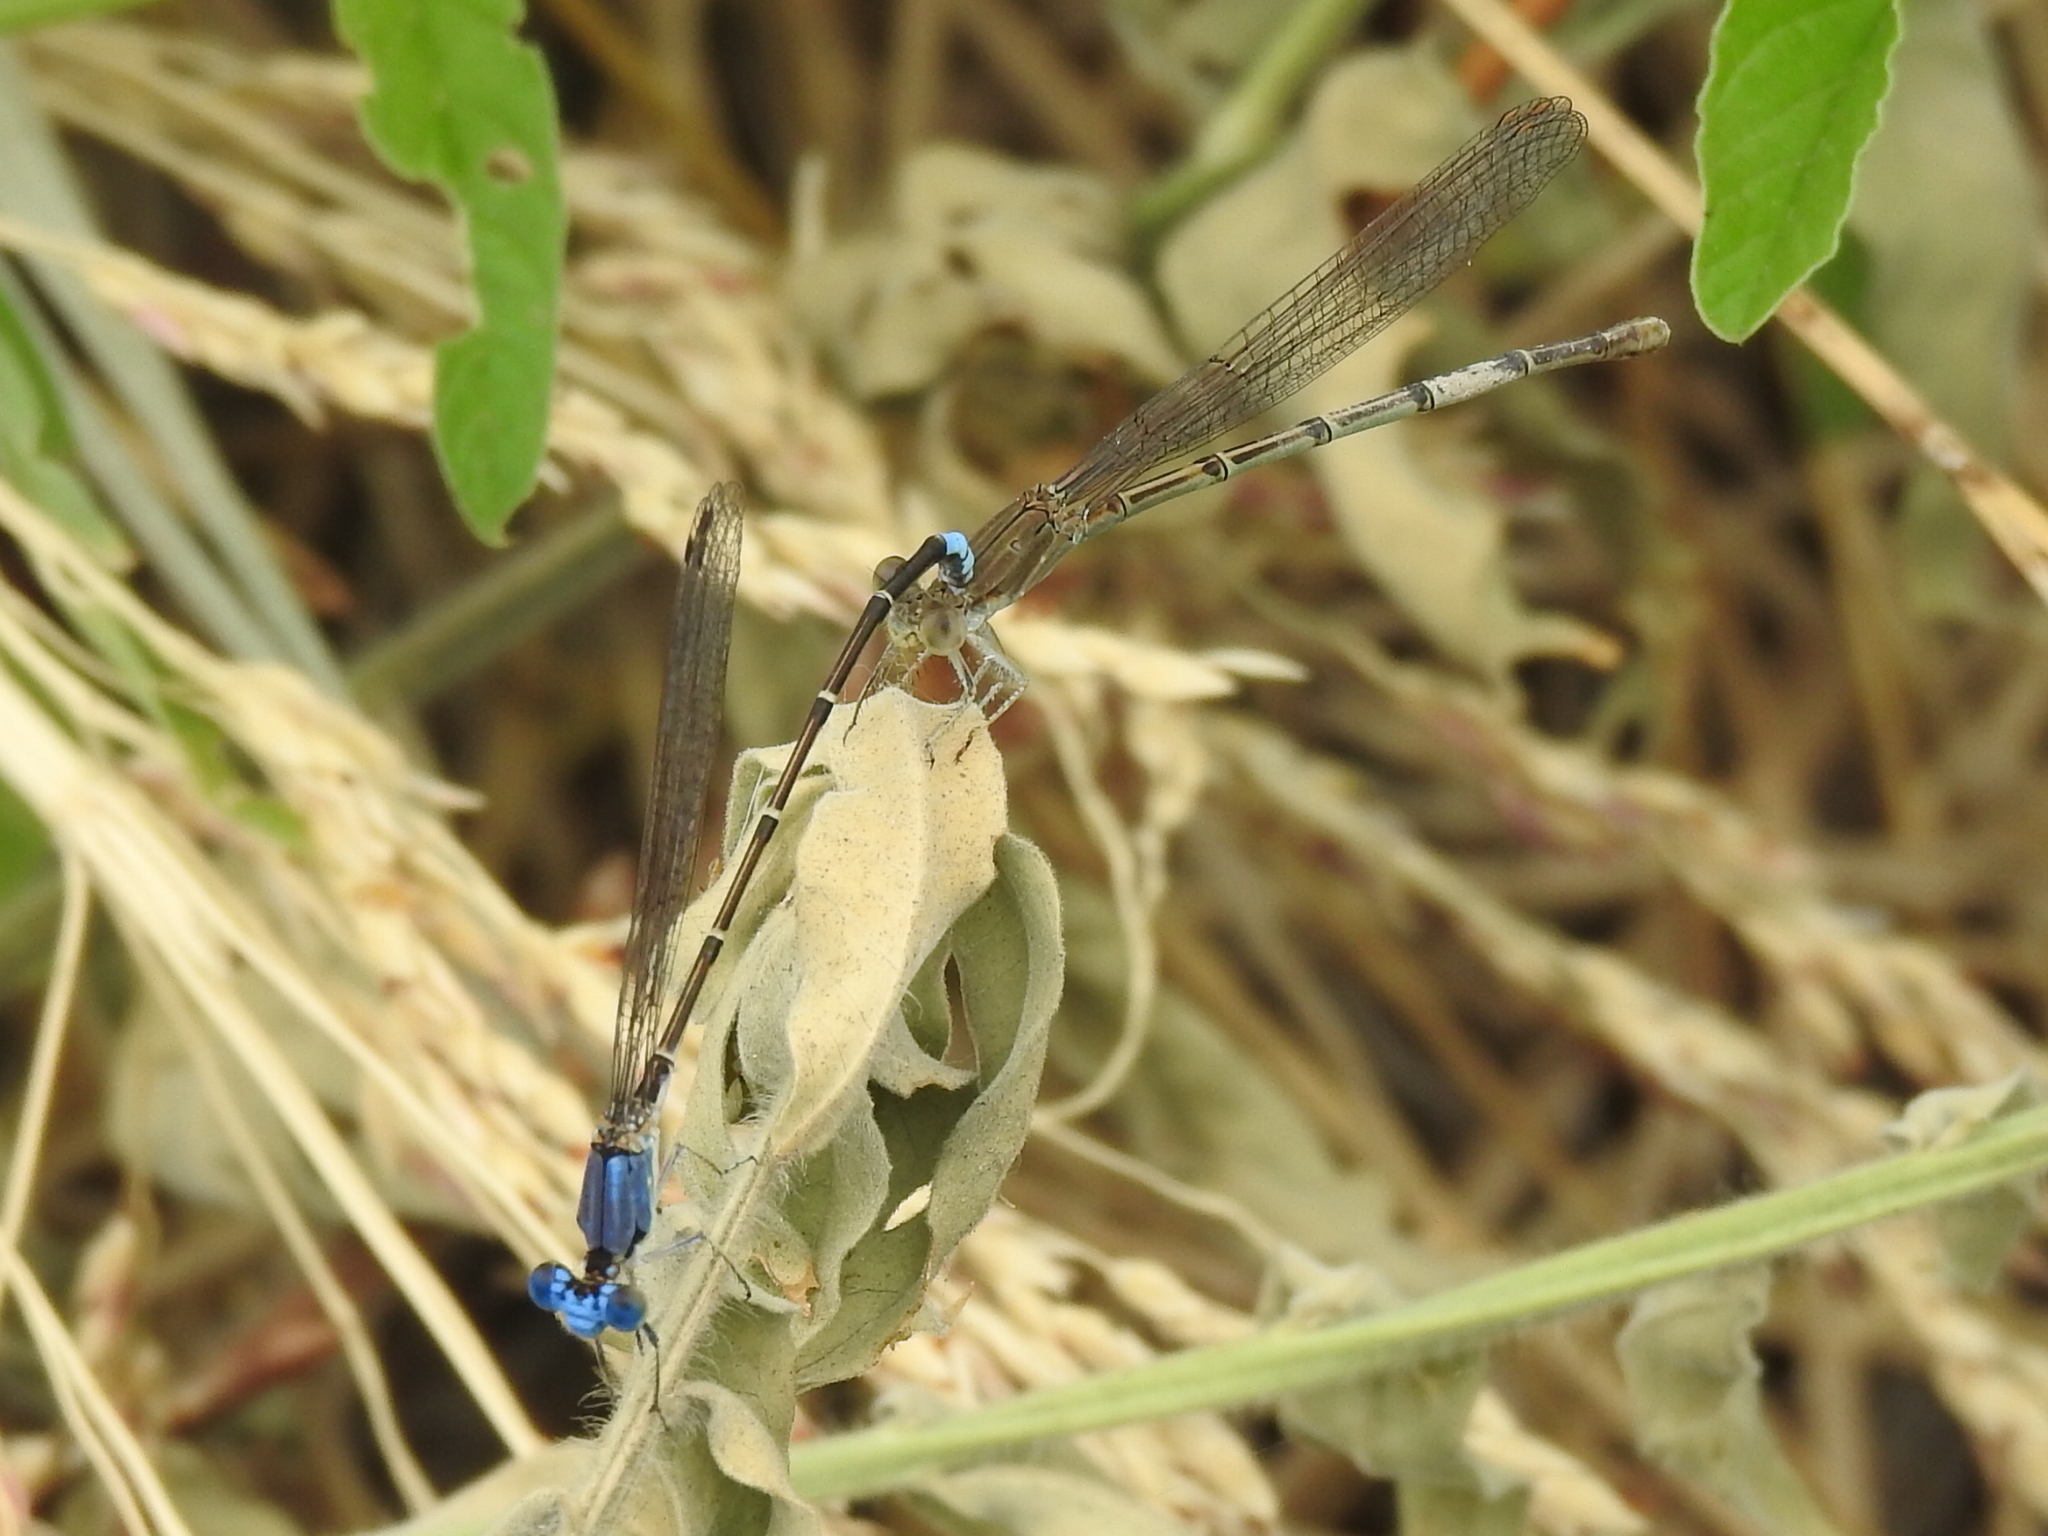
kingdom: Animalia
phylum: Arthropoda
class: Insecta
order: Odonata
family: Coenagrionidae
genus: Argia
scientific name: Argia apicalis
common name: Blue-fronted dancer
